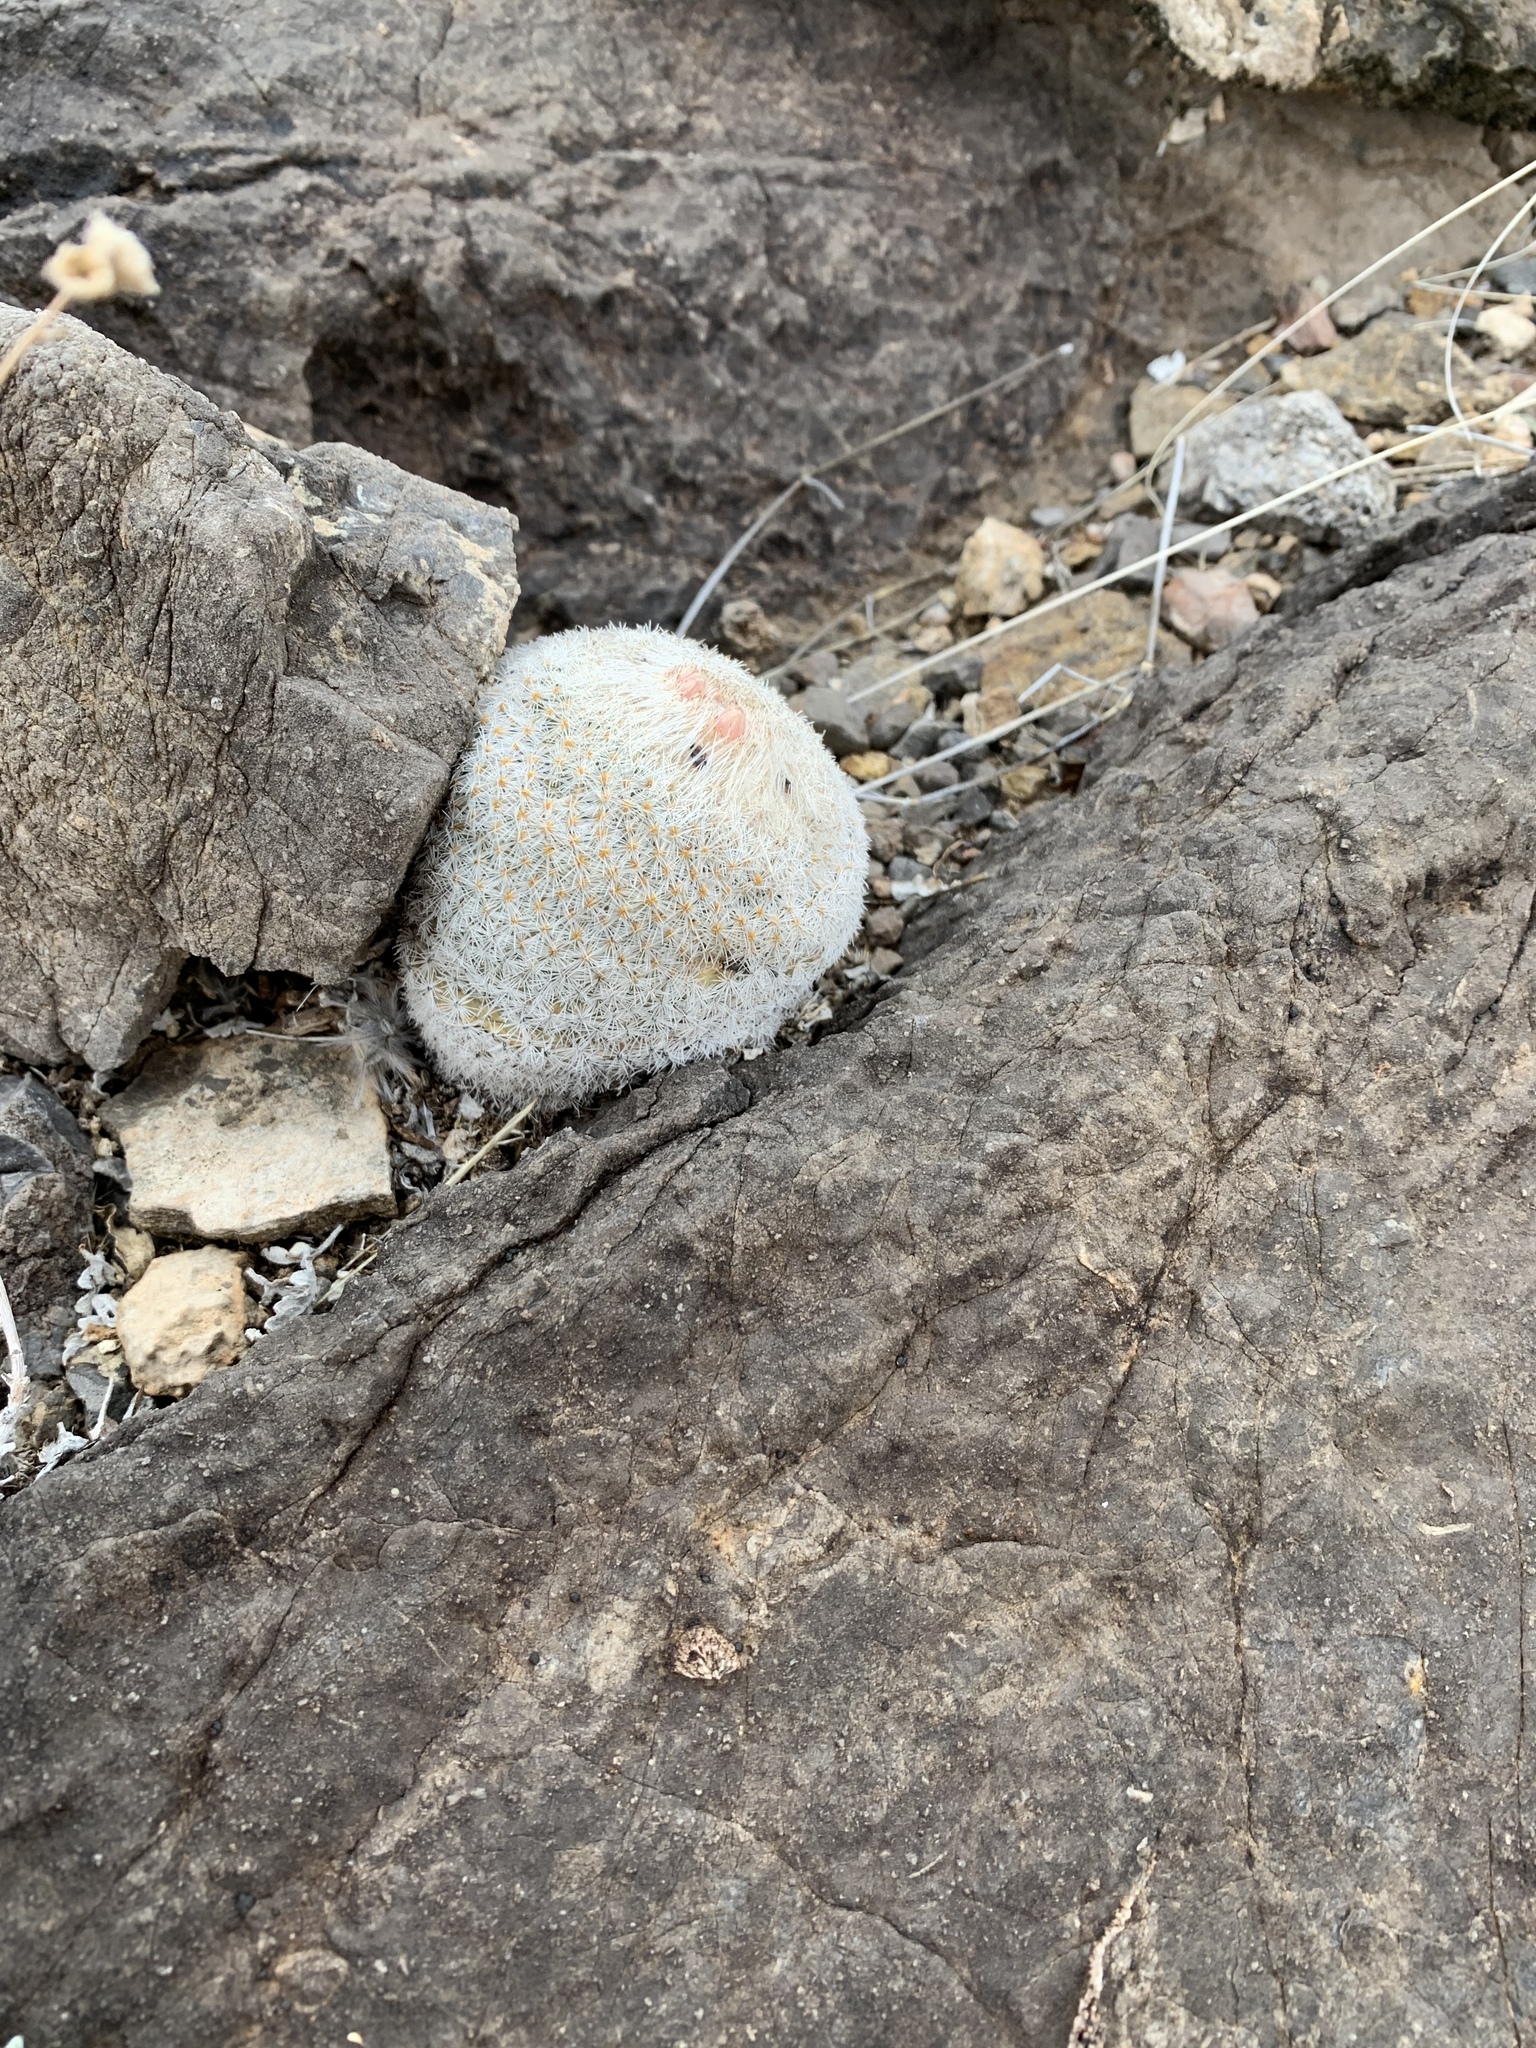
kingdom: Plantae
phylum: Tracheophyta
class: Magnoliopsida
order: Caryophyllales
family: Cactaceae
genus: Epithelantha
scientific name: Epithelantha micromeris
